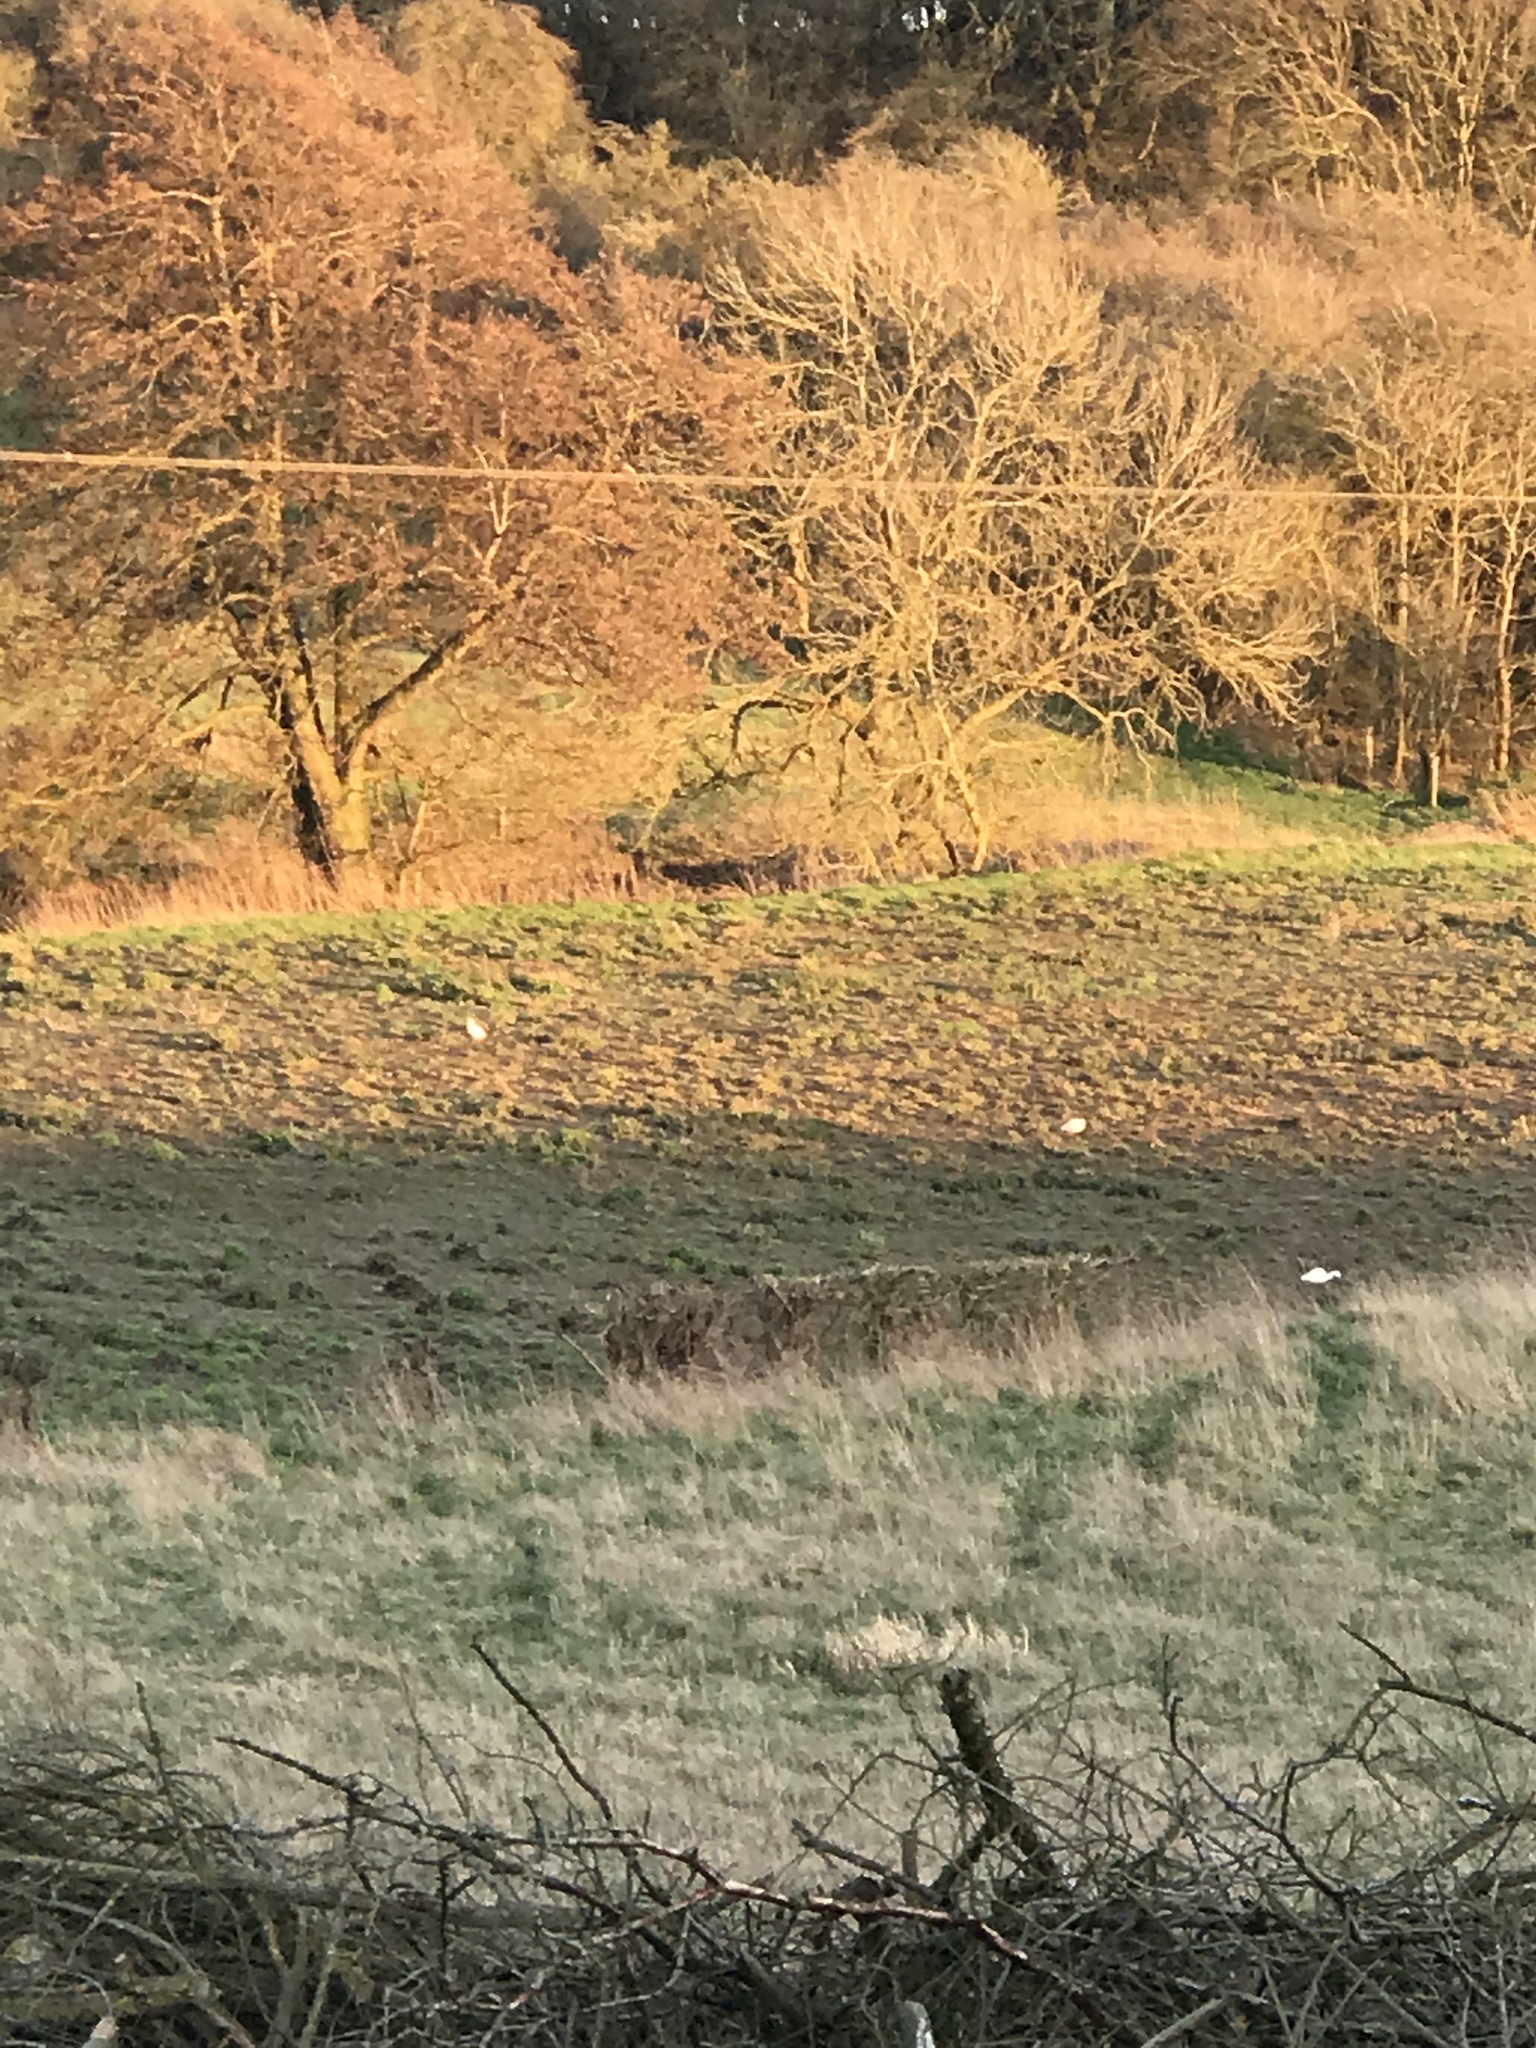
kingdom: Animalia
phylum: Chordata
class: Aves
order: Pelecaniformes
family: Ardeidae
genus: Egretta
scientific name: Egretta garzetta
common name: Little egret
